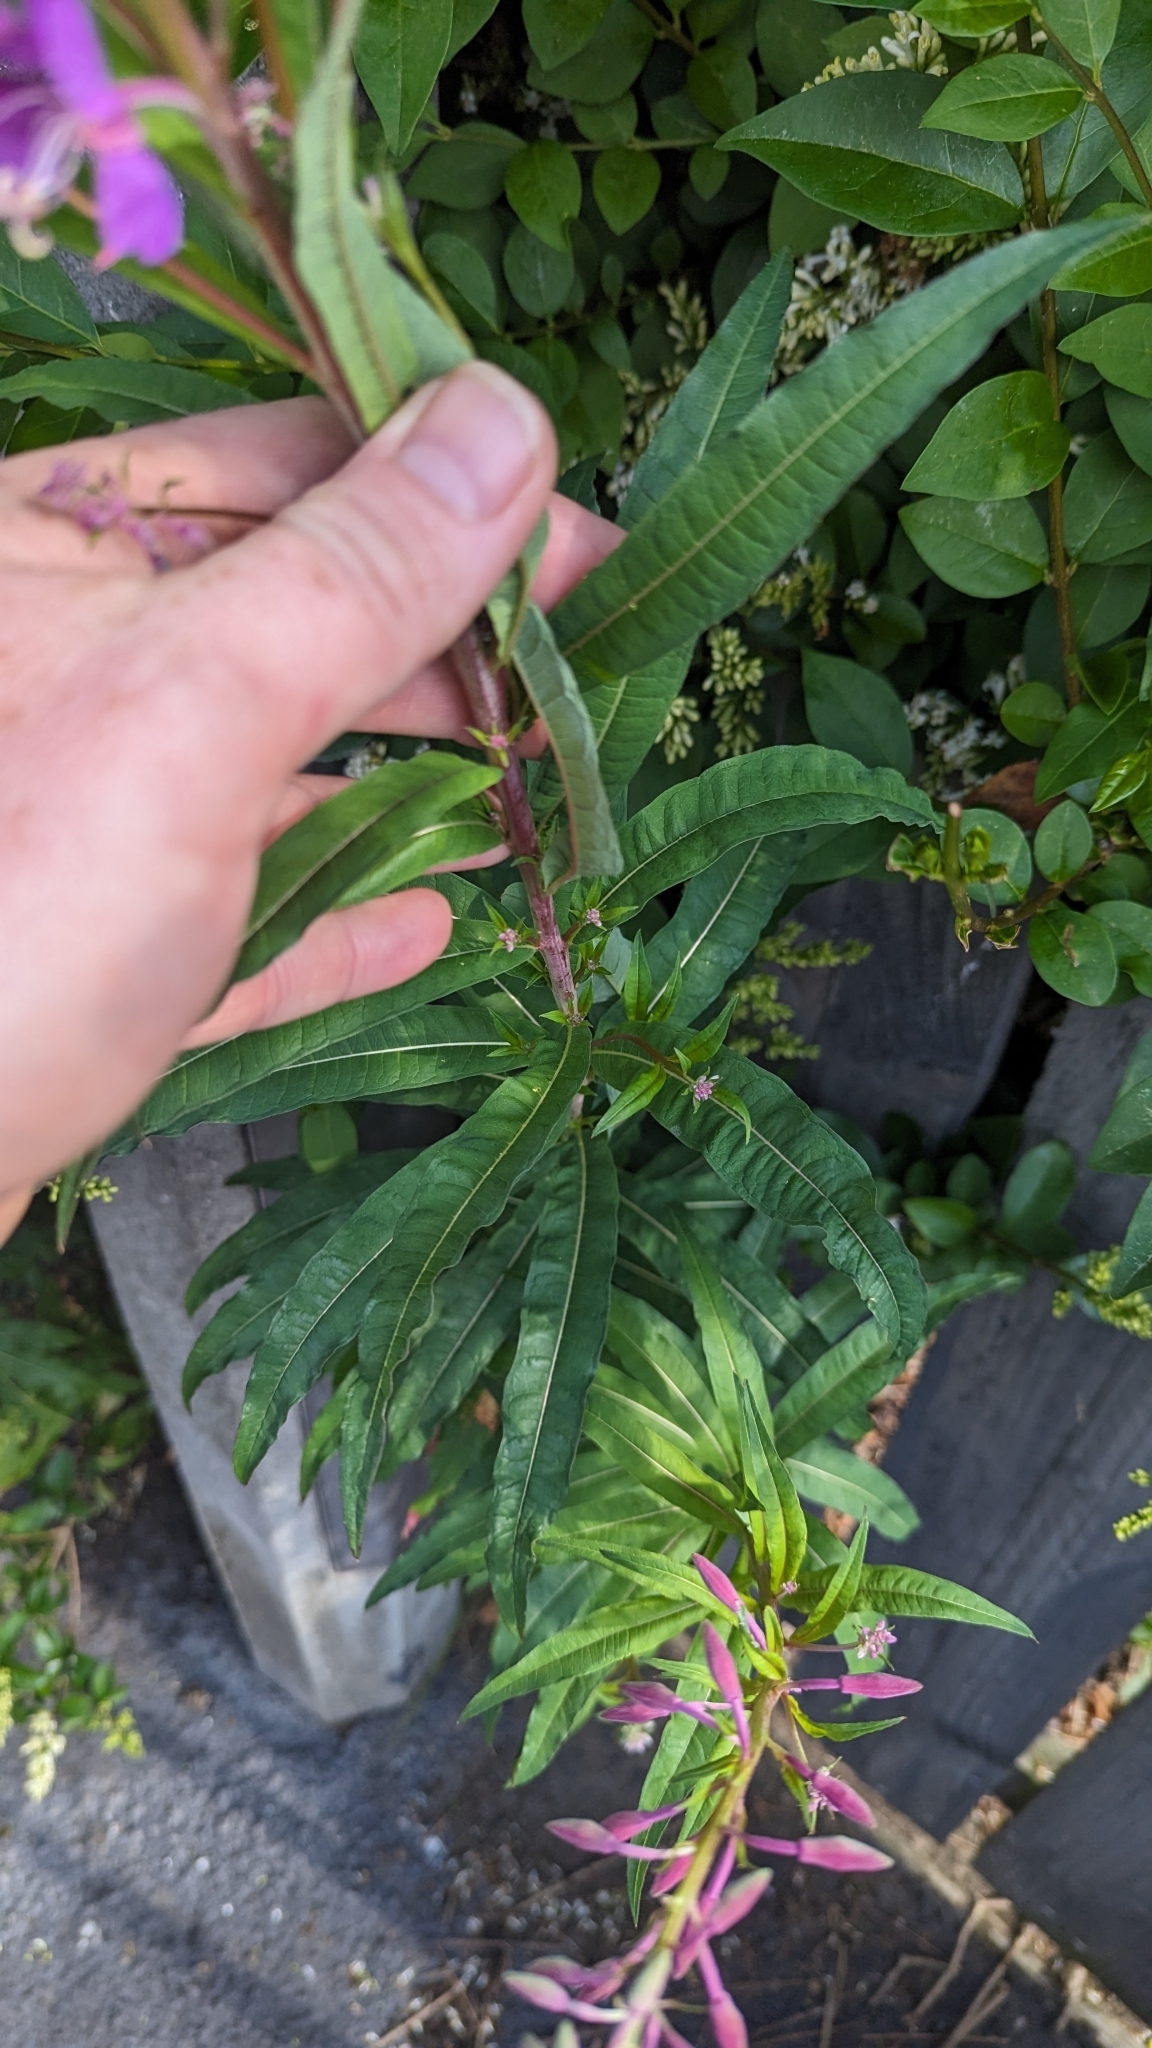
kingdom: Plantae
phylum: Tracheophyta
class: Magnoliopsida
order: Myrtales
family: Onagraceae
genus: Chamaenerion
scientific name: Chamaenerion angustifolium
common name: Fireweed
